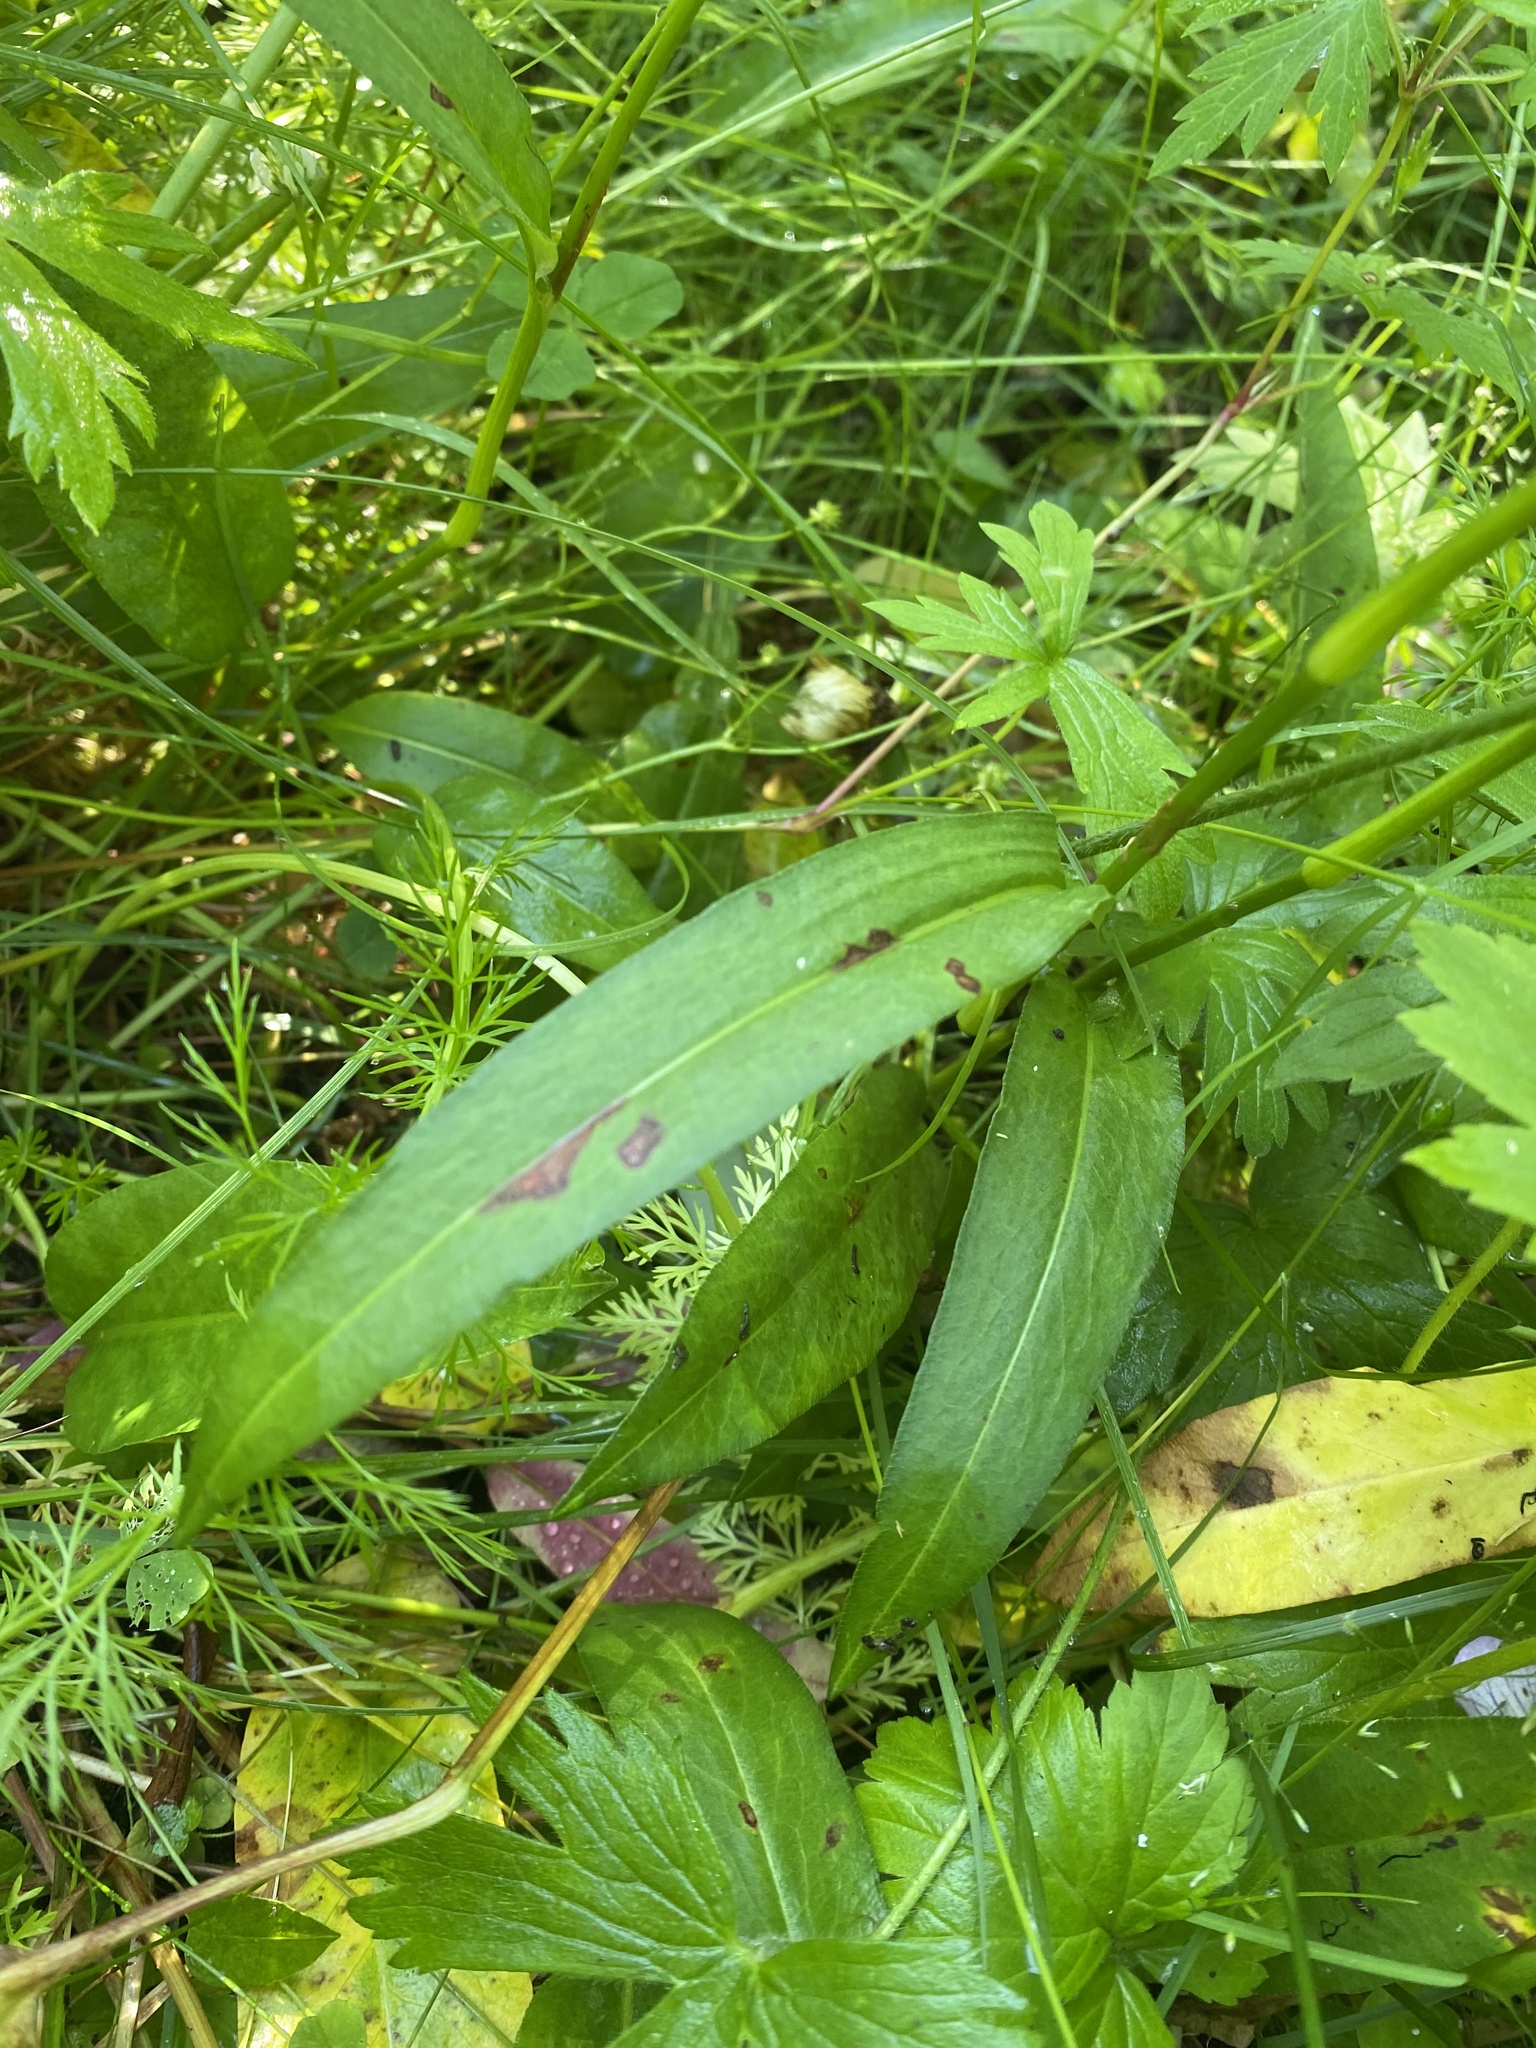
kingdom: Plantae
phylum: Tracheophyta
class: Magnoliopsida
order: Caryophyllales
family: Polygonaceae
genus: Bistorta
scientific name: Bistorta vivipara
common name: Alpine bistort
